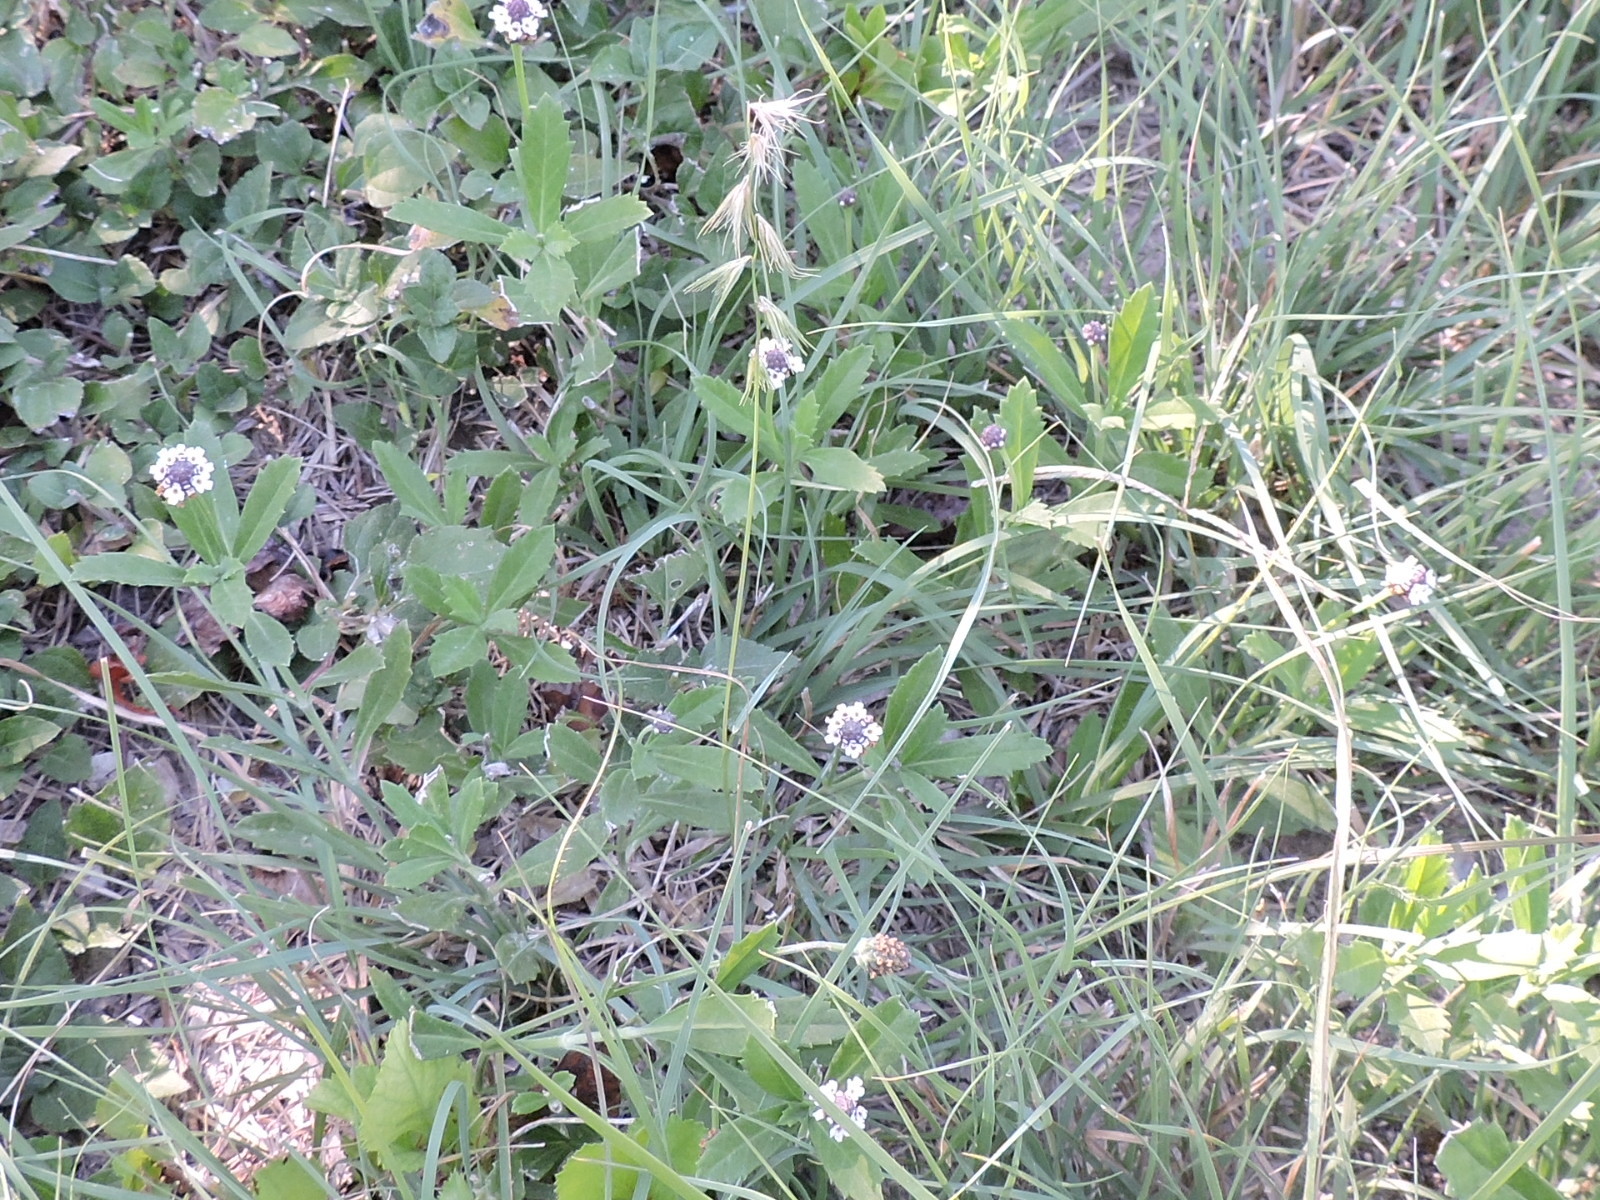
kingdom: Plantae
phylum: Tracheophyta
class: Liliopsida
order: Poales
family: Poaceae
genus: Bouteloua
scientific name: Bouteloua rigidiseta
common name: Texas grama
